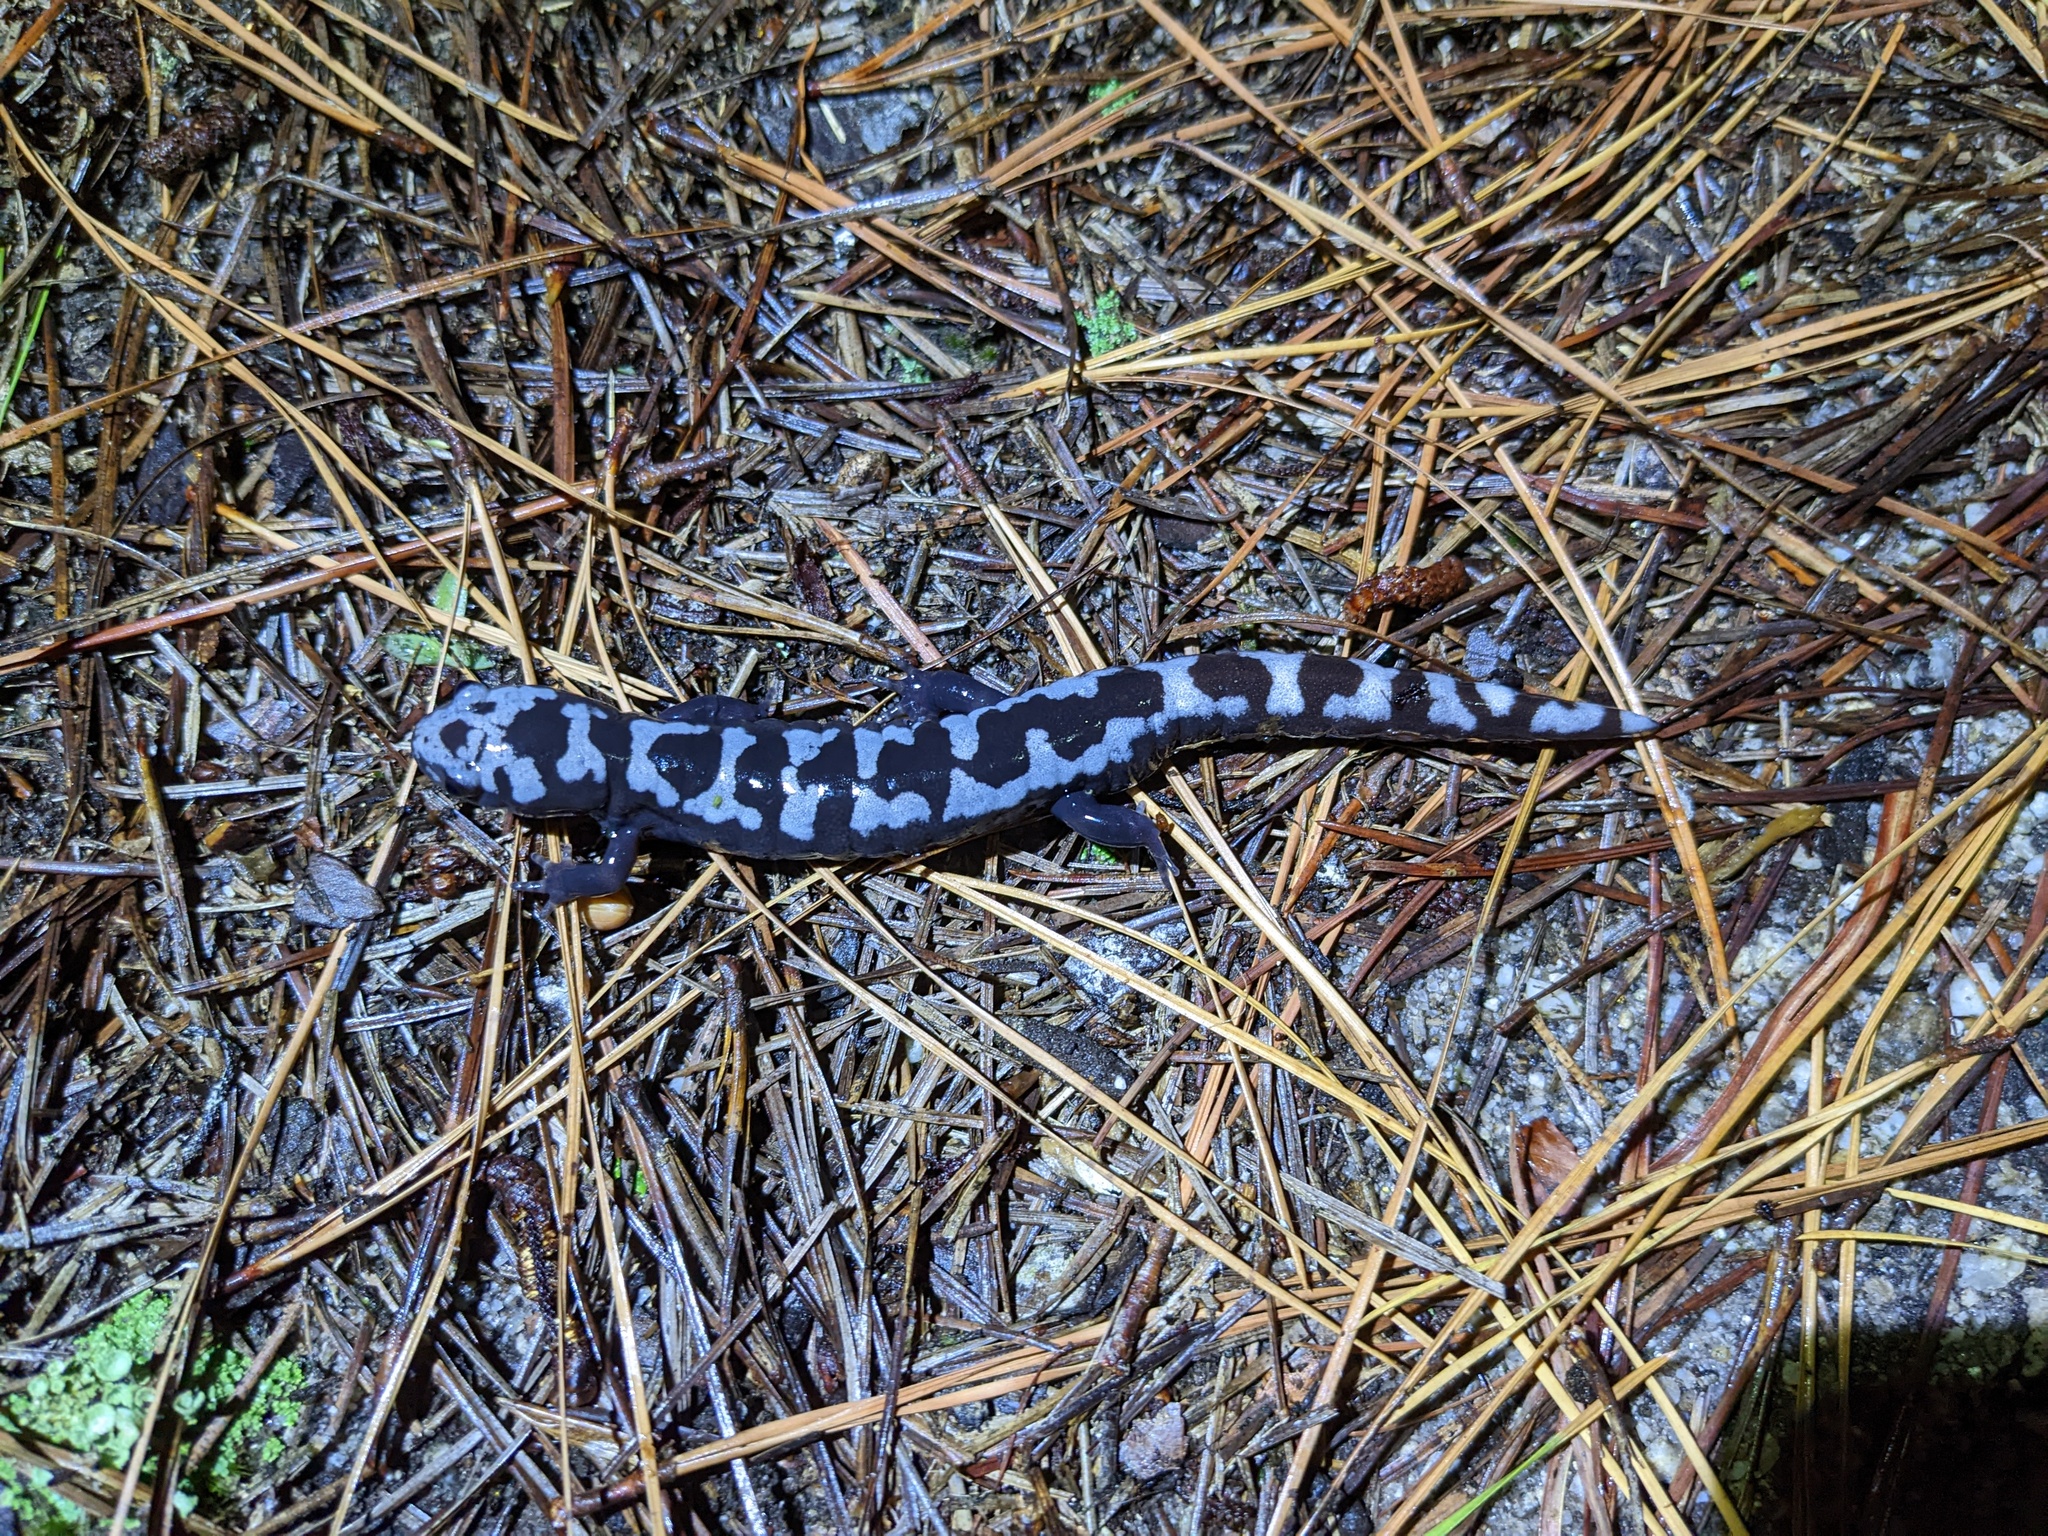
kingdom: Animalia
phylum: Chordata
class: Amphibia
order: Caudata
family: Ambystomatidae
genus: Ambystoma
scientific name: Ambystoma opacum
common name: Marbled salamander
